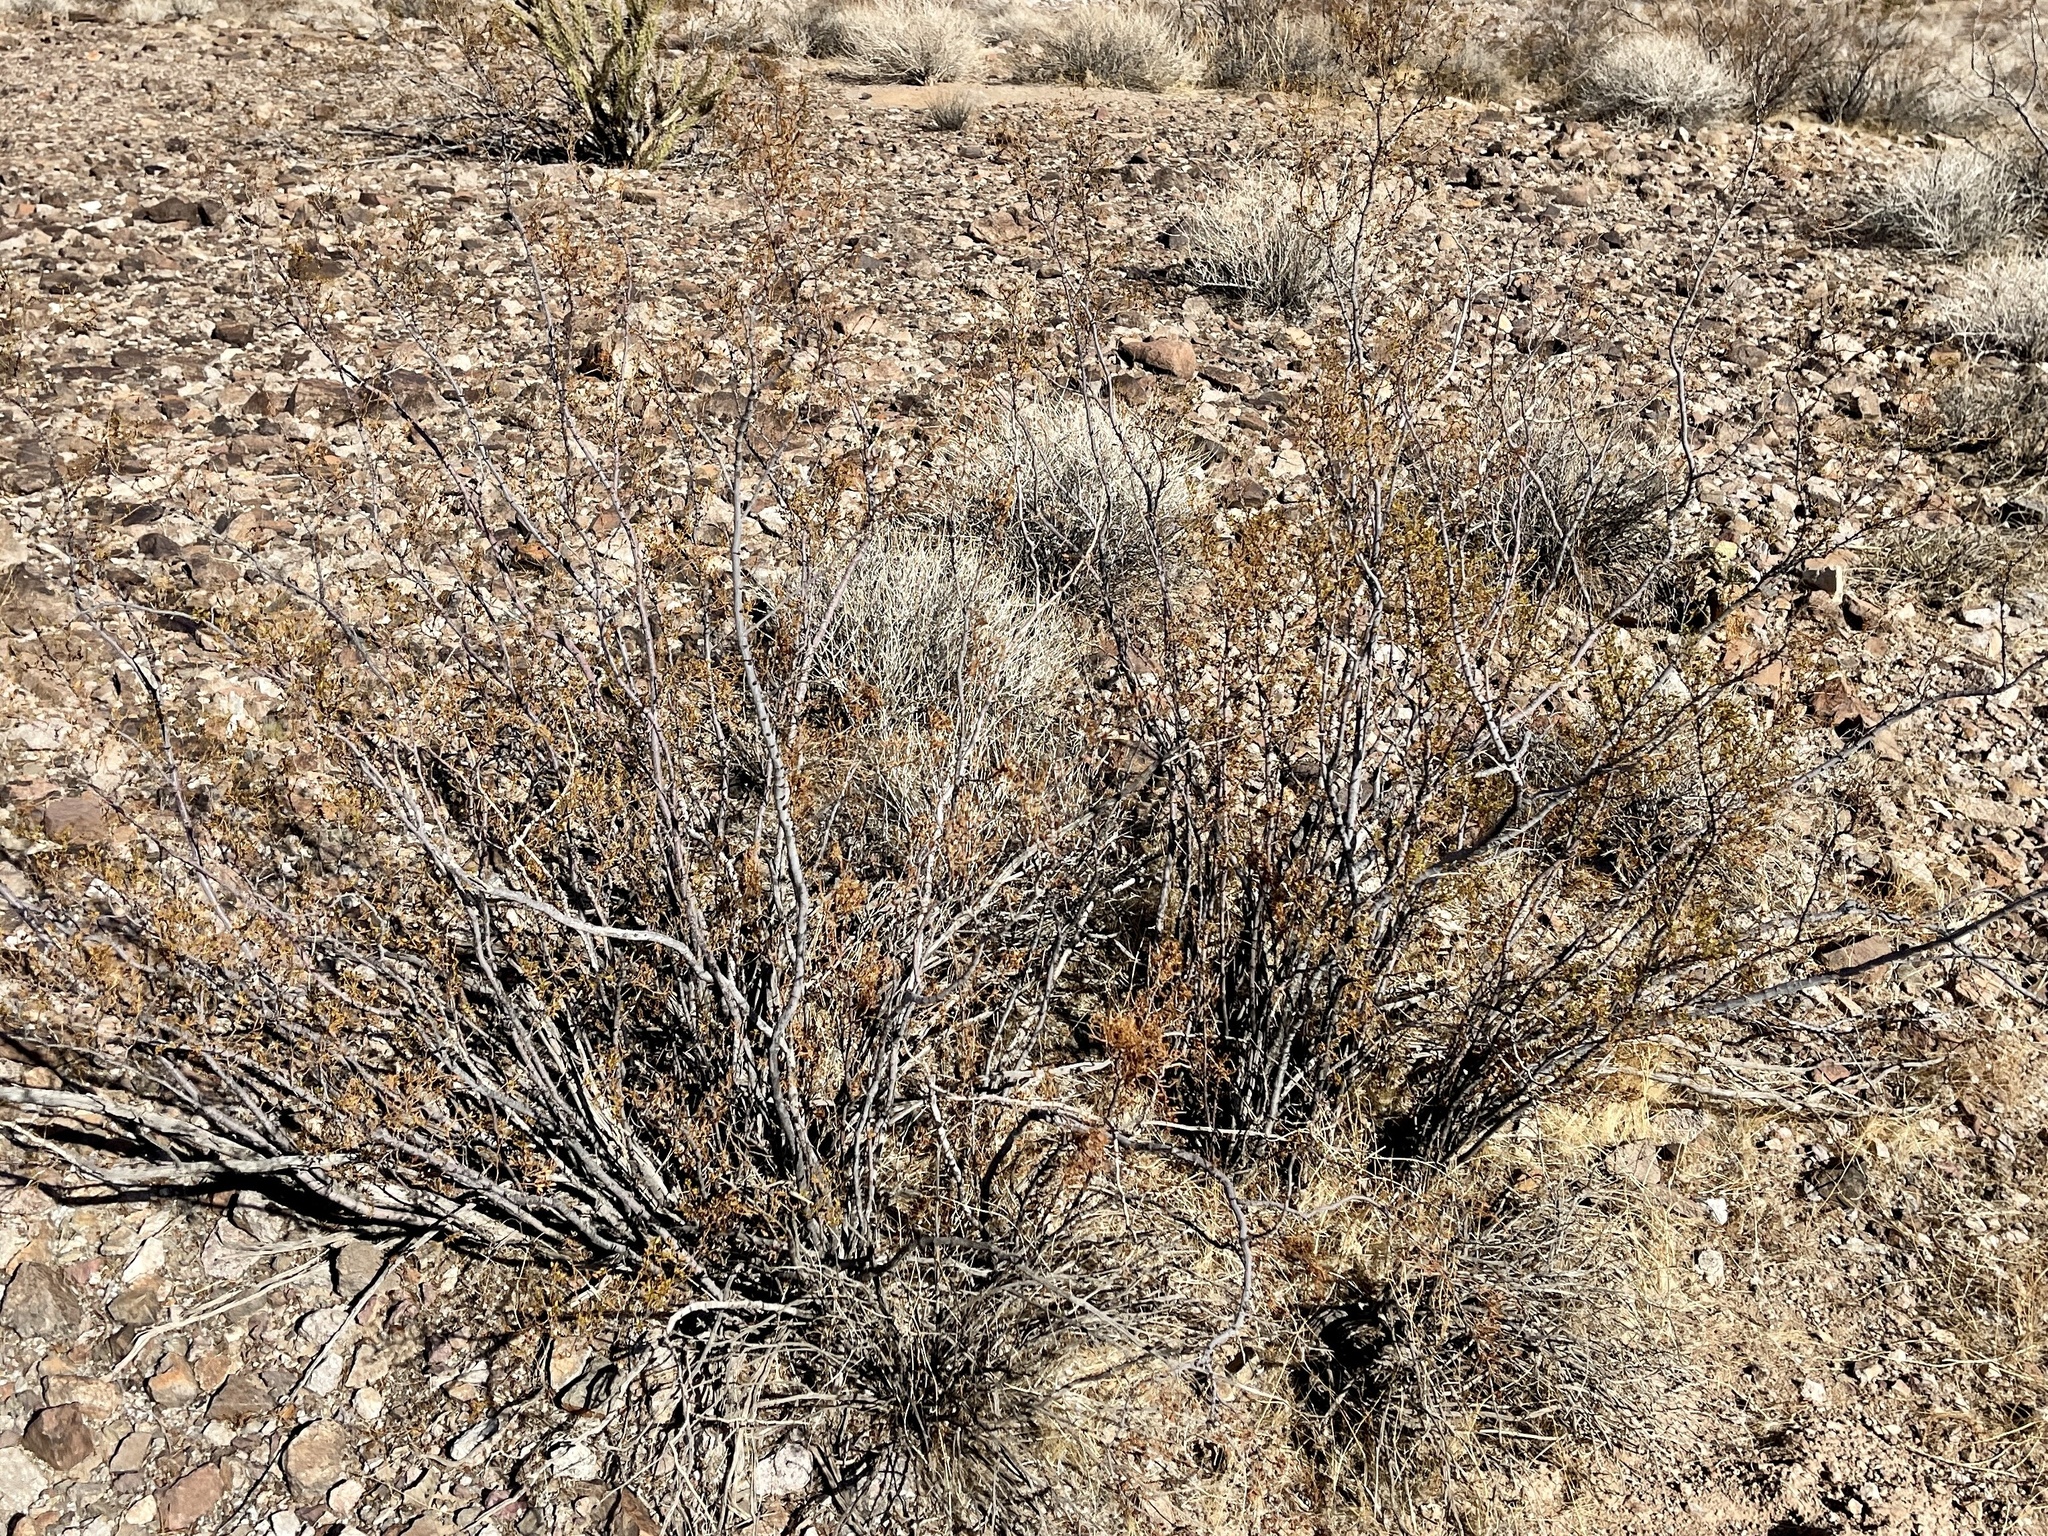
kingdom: Plantae
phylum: Tracheophyta
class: Magnoliopsida
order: Zygophyllales
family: Zygophyllaceae
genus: Larrea
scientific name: Larrea tridentata
